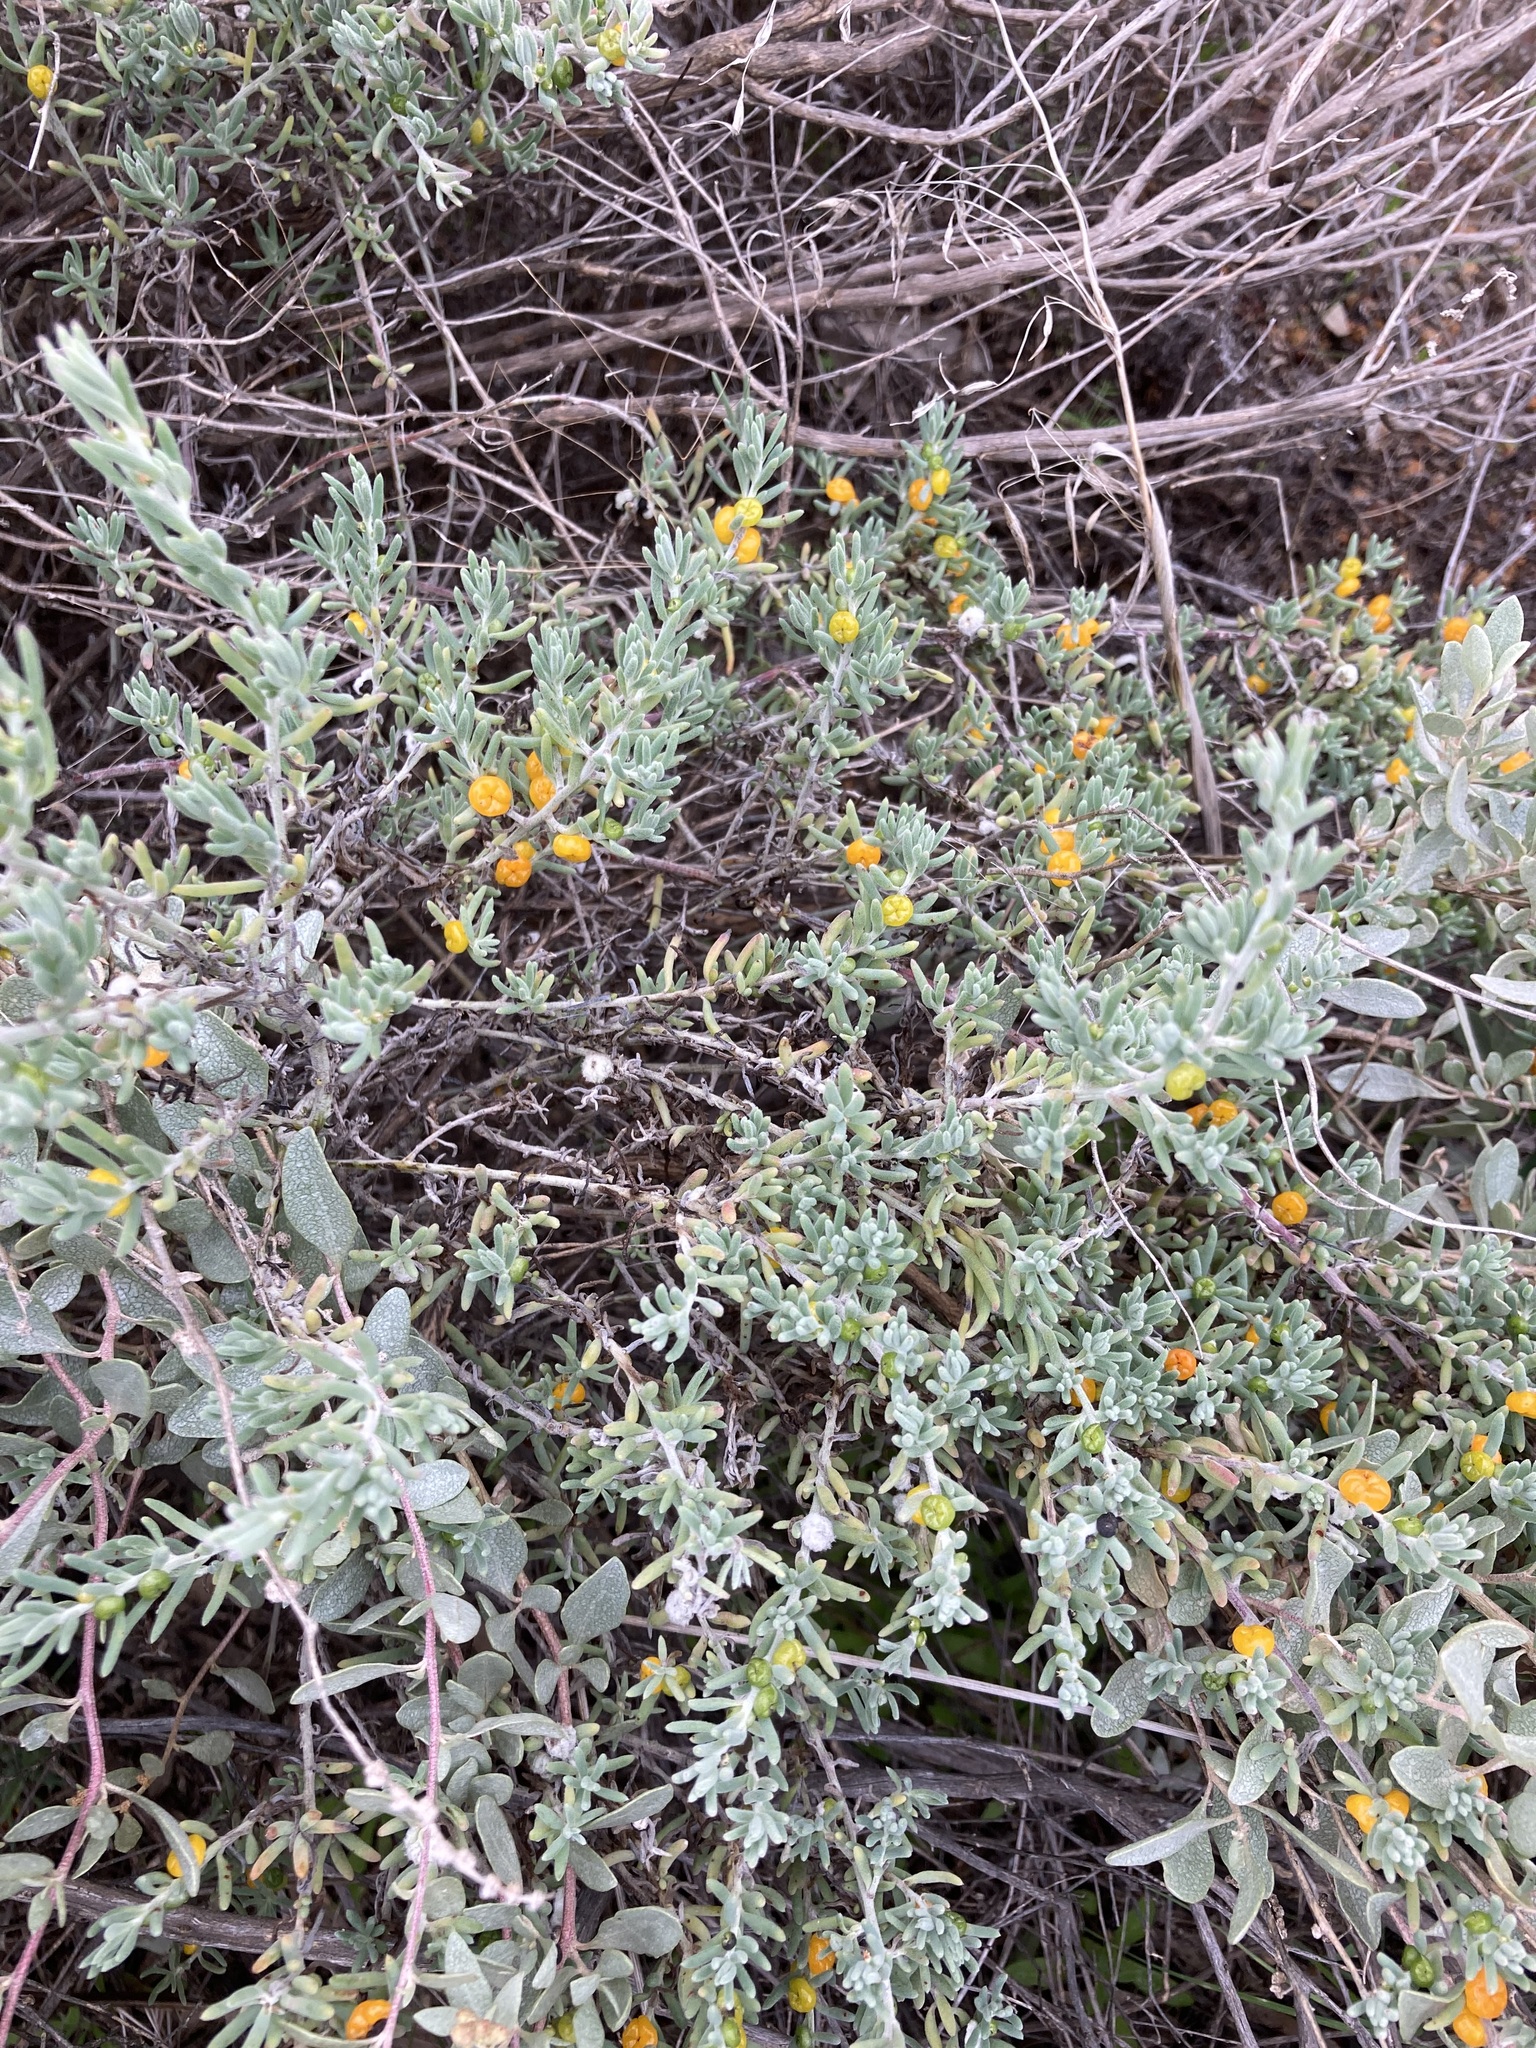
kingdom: Plantae
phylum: Tracheophyta
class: Magnoliopsida
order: Caryophyllales
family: Amaranthaceae
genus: Enchylaena
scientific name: Enchylaena tomentosa
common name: Ruby saltbush
